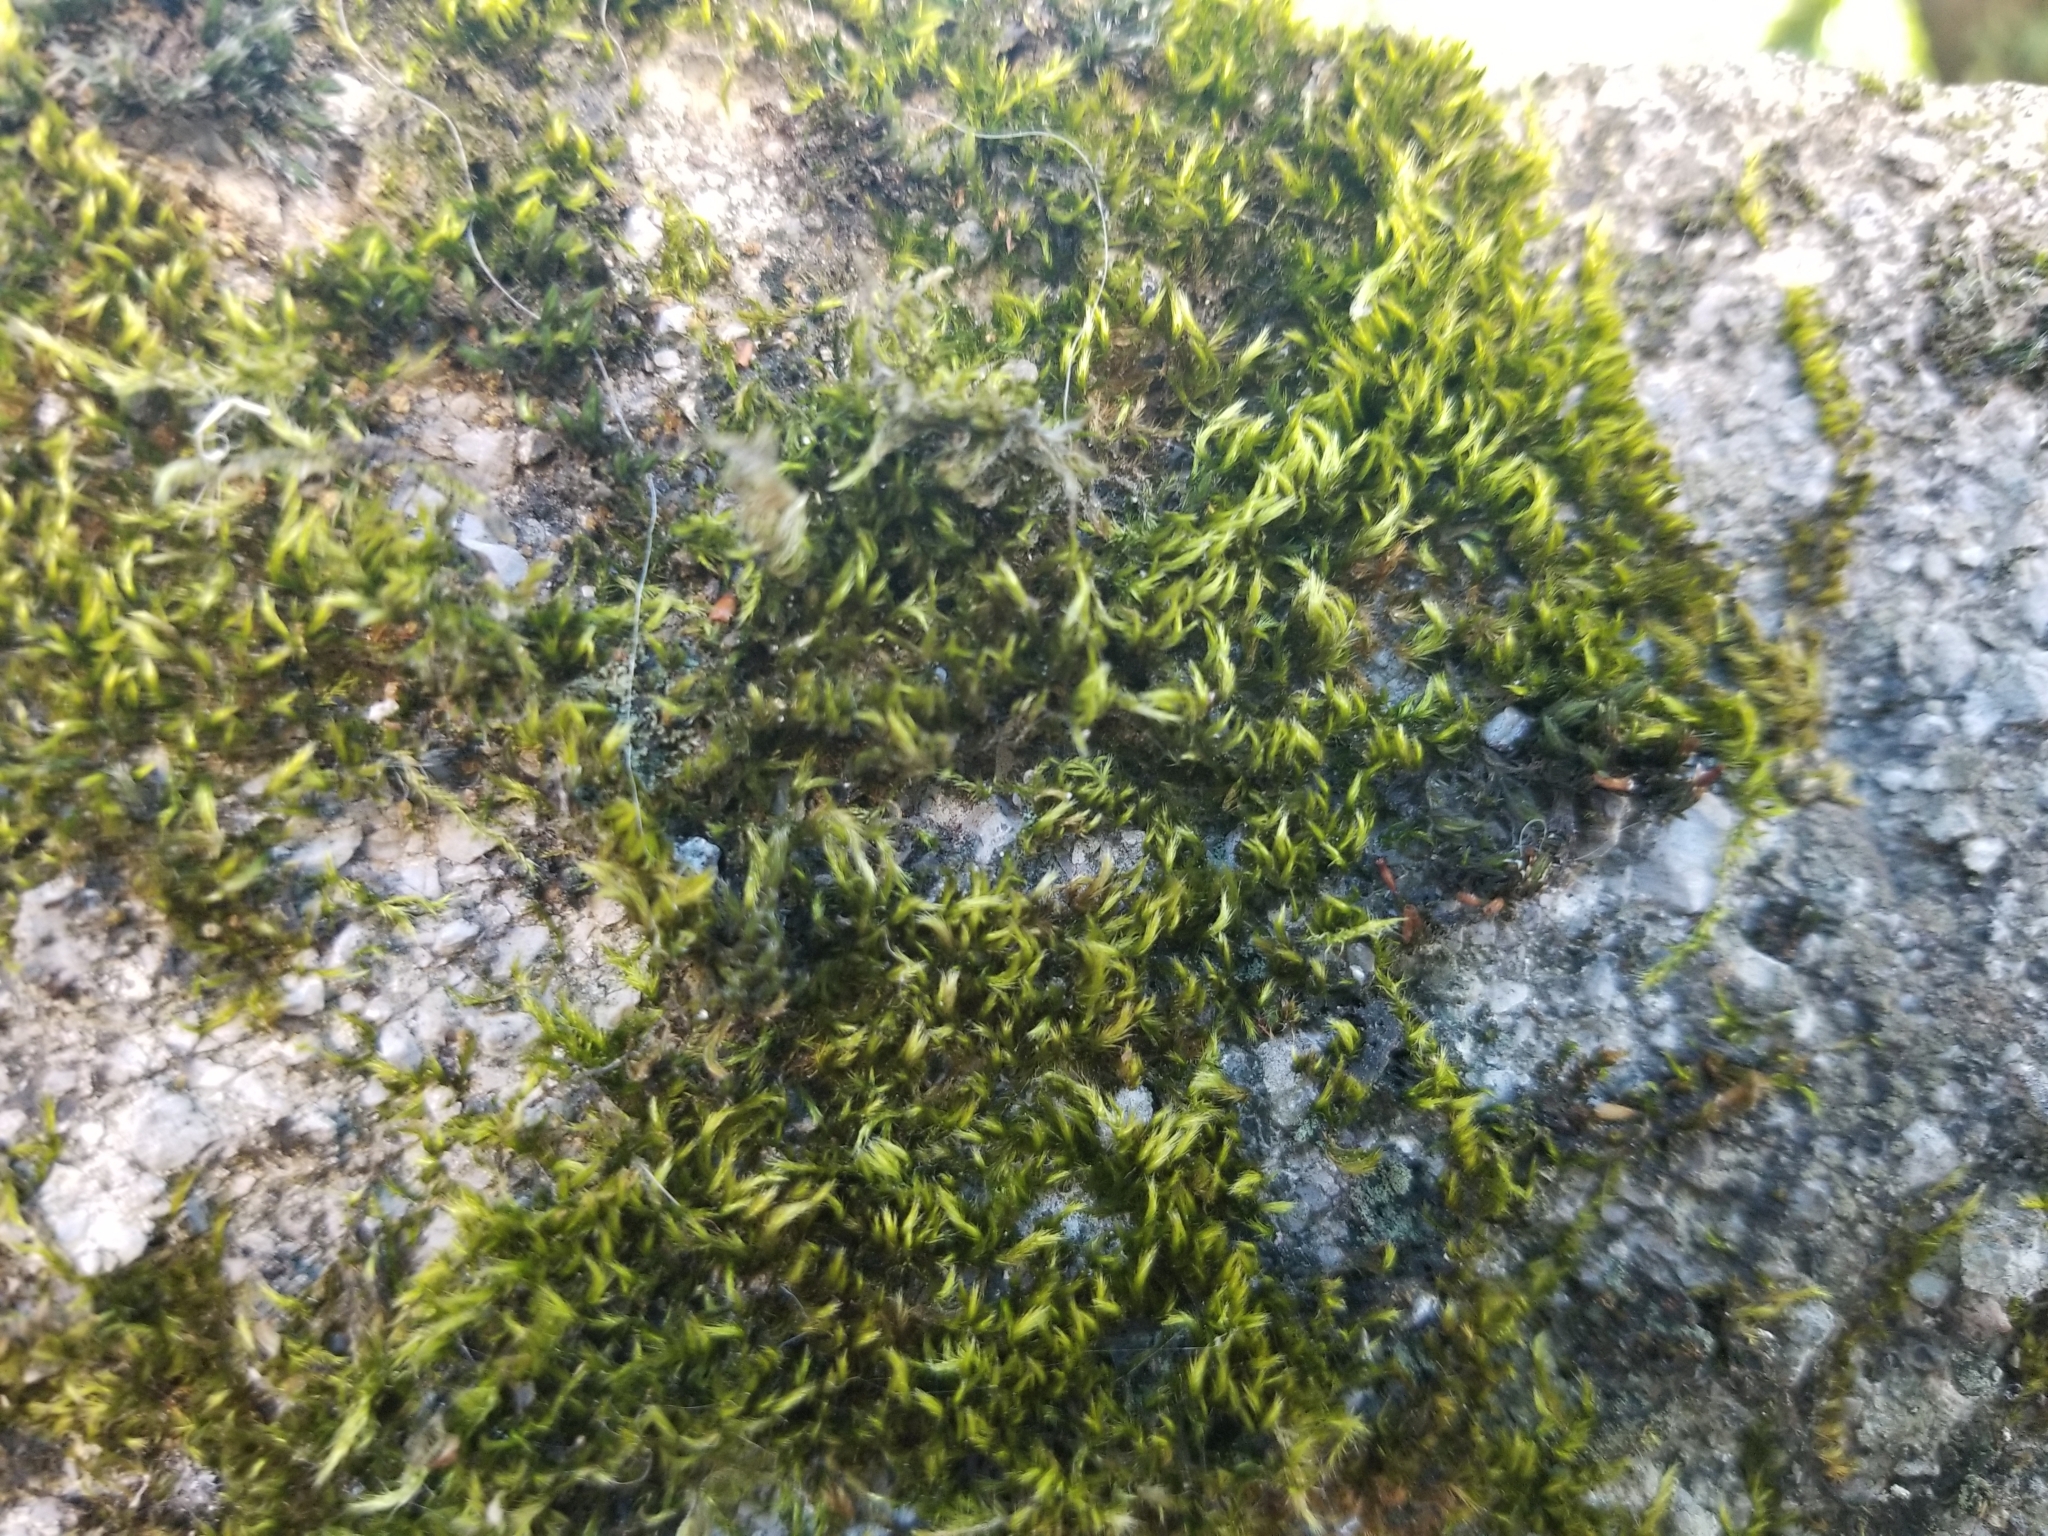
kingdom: Plantae
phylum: Bryophyta
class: Bryopsida
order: Hypnales
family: Brachytheciaceae
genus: Homalothecium
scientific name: Homalothecium sericeum
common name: Silky wall feather-moss
